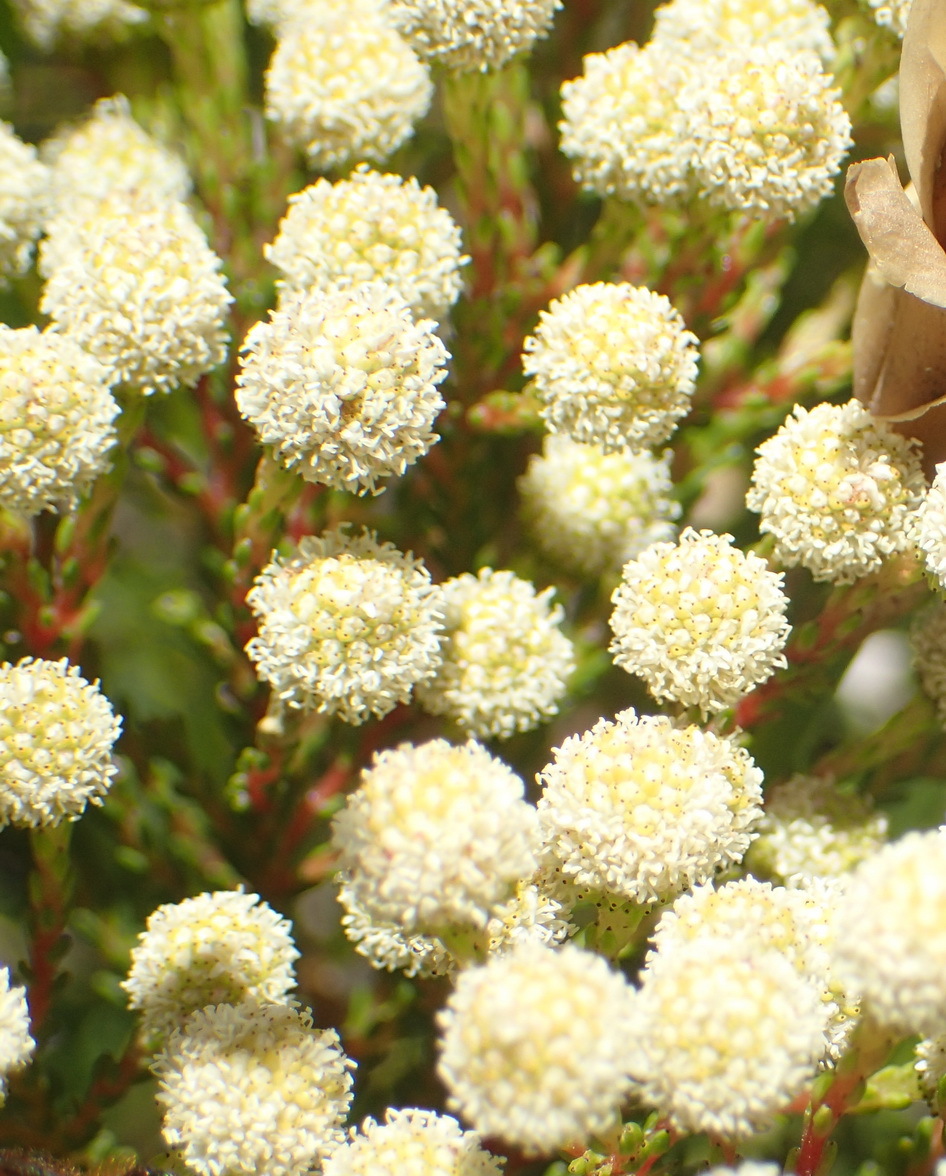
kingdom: Plantae
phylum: Tracheophyta
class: Magnoliopsida
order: Bruniales
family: Bruniaceae
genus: Berzelia
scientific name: Berzelia intermedia
